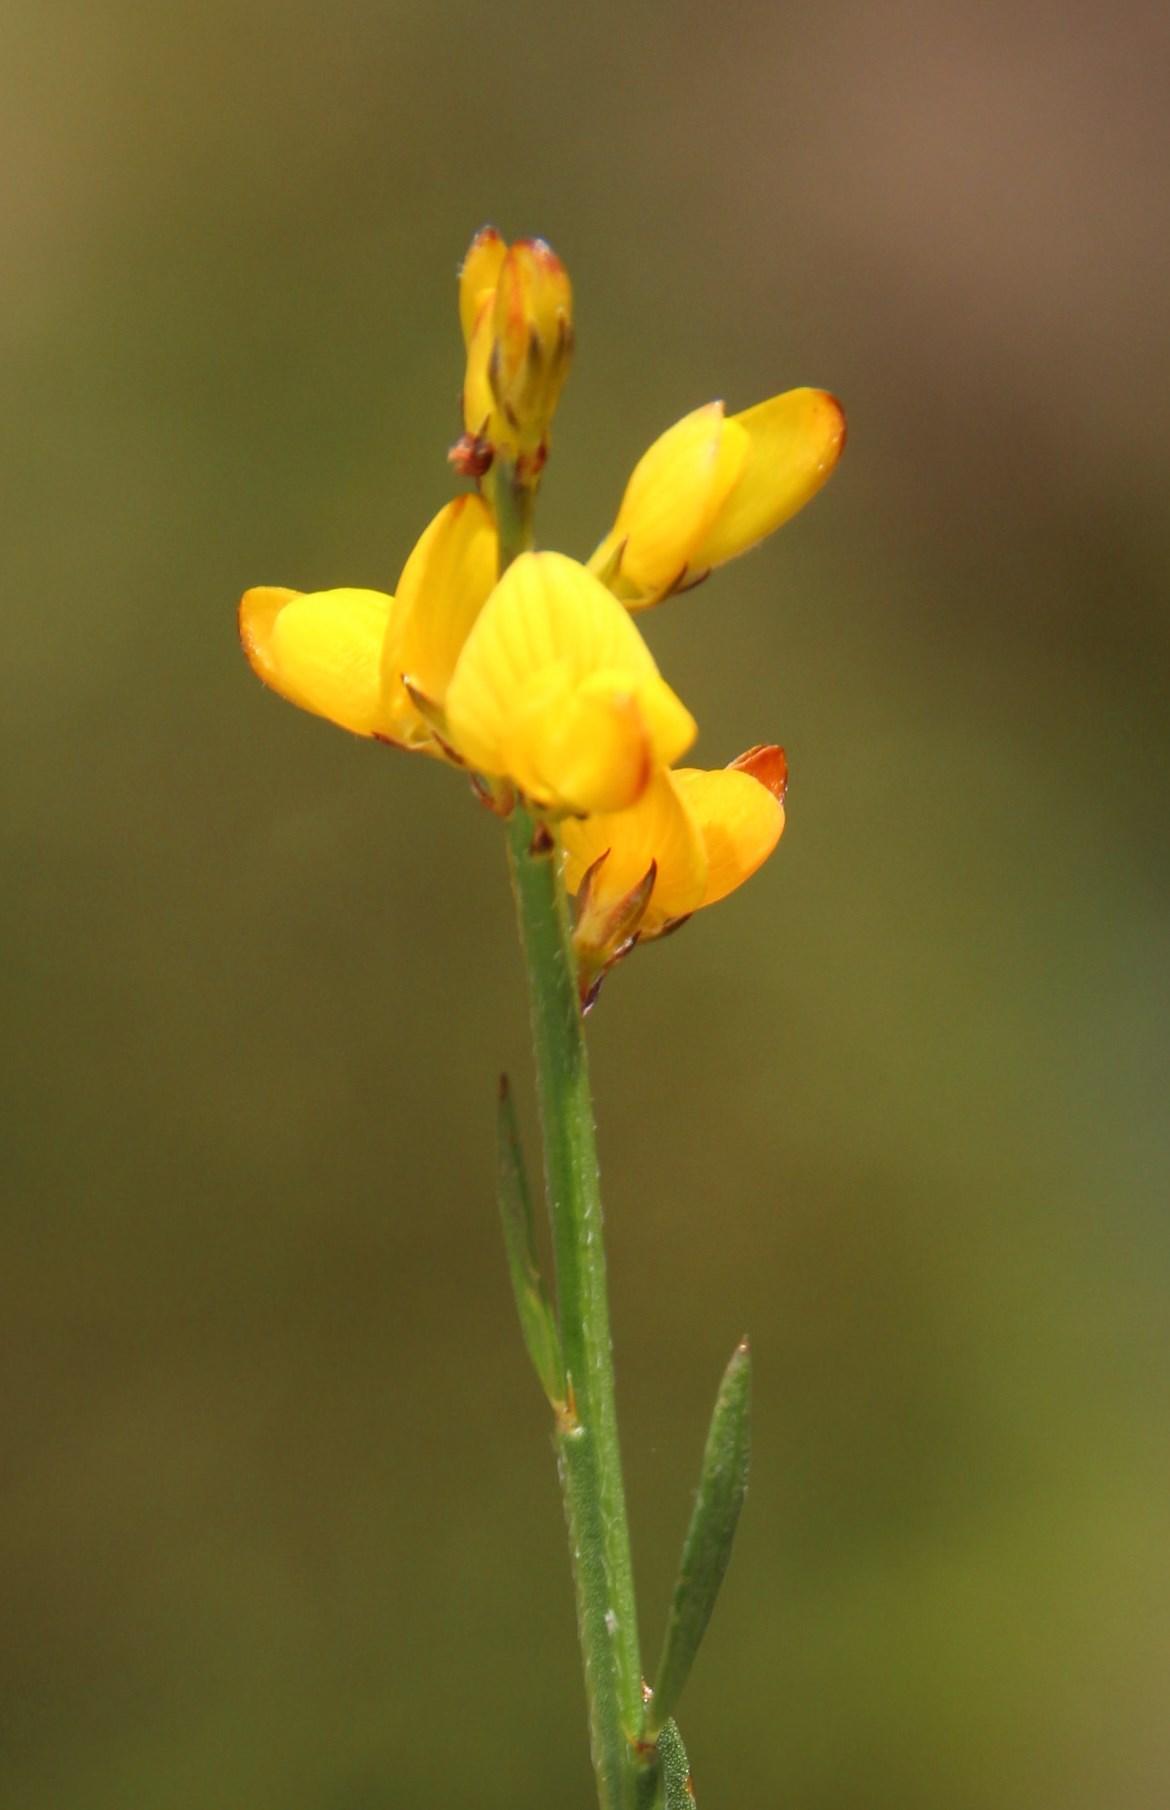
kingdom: Plantae
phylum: Tracheophyta
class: Magnoliopsida
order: Fabales
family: Fabaceae
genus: Genista
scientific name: Genista micrantha
